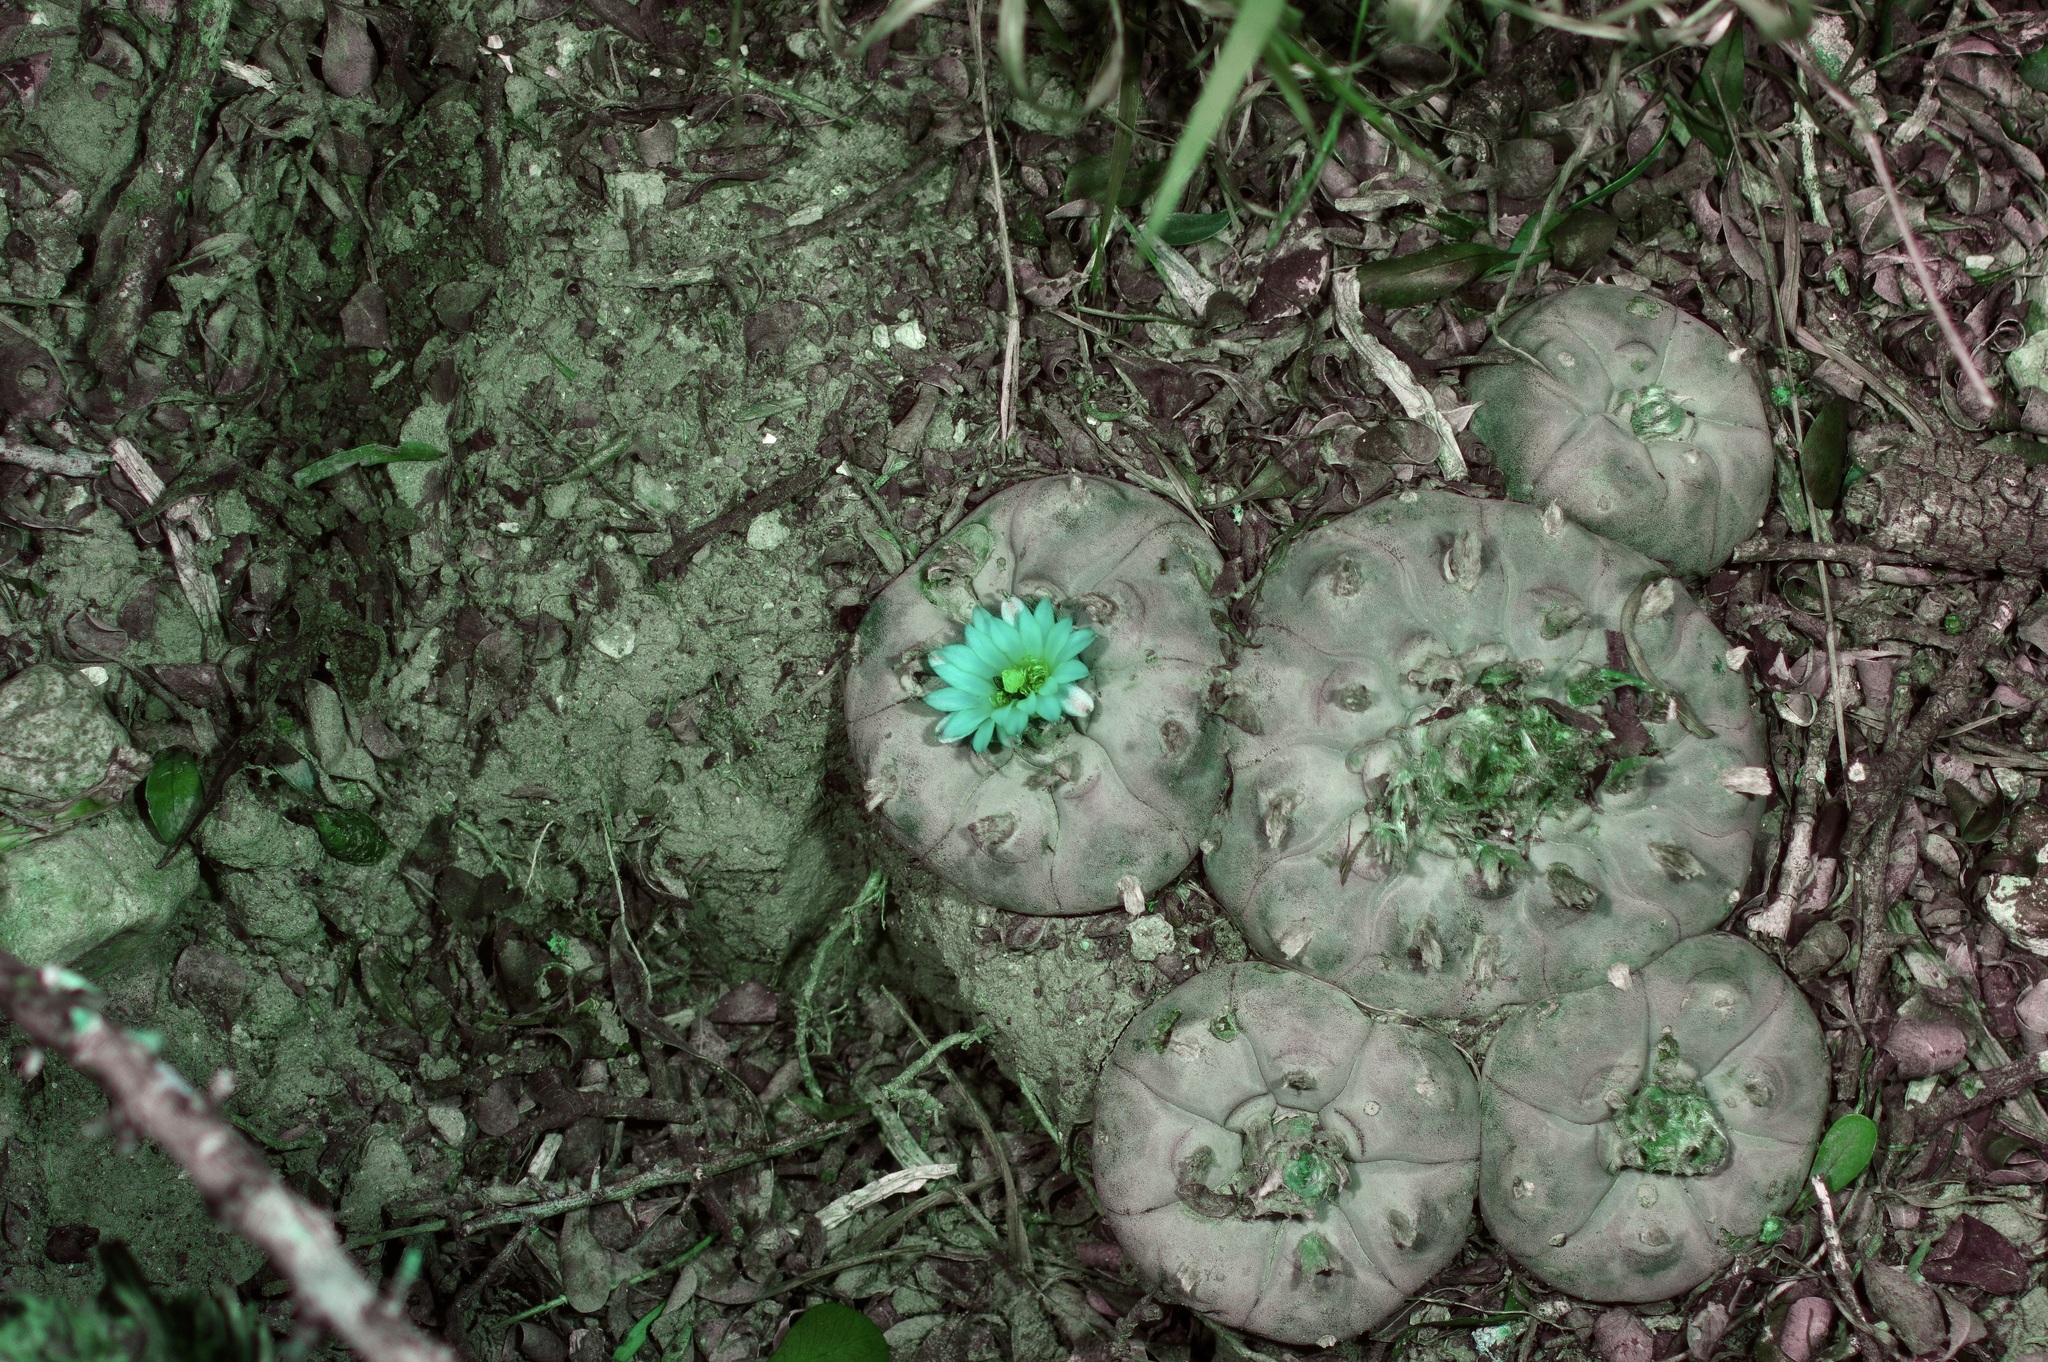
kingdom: Plantae
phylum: Tracheophyta
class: Magnoliopsida
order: Caryophyllales
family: Cactaceae
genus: Lophophora
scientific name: Lophophora williamsii
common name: Indian-dope
